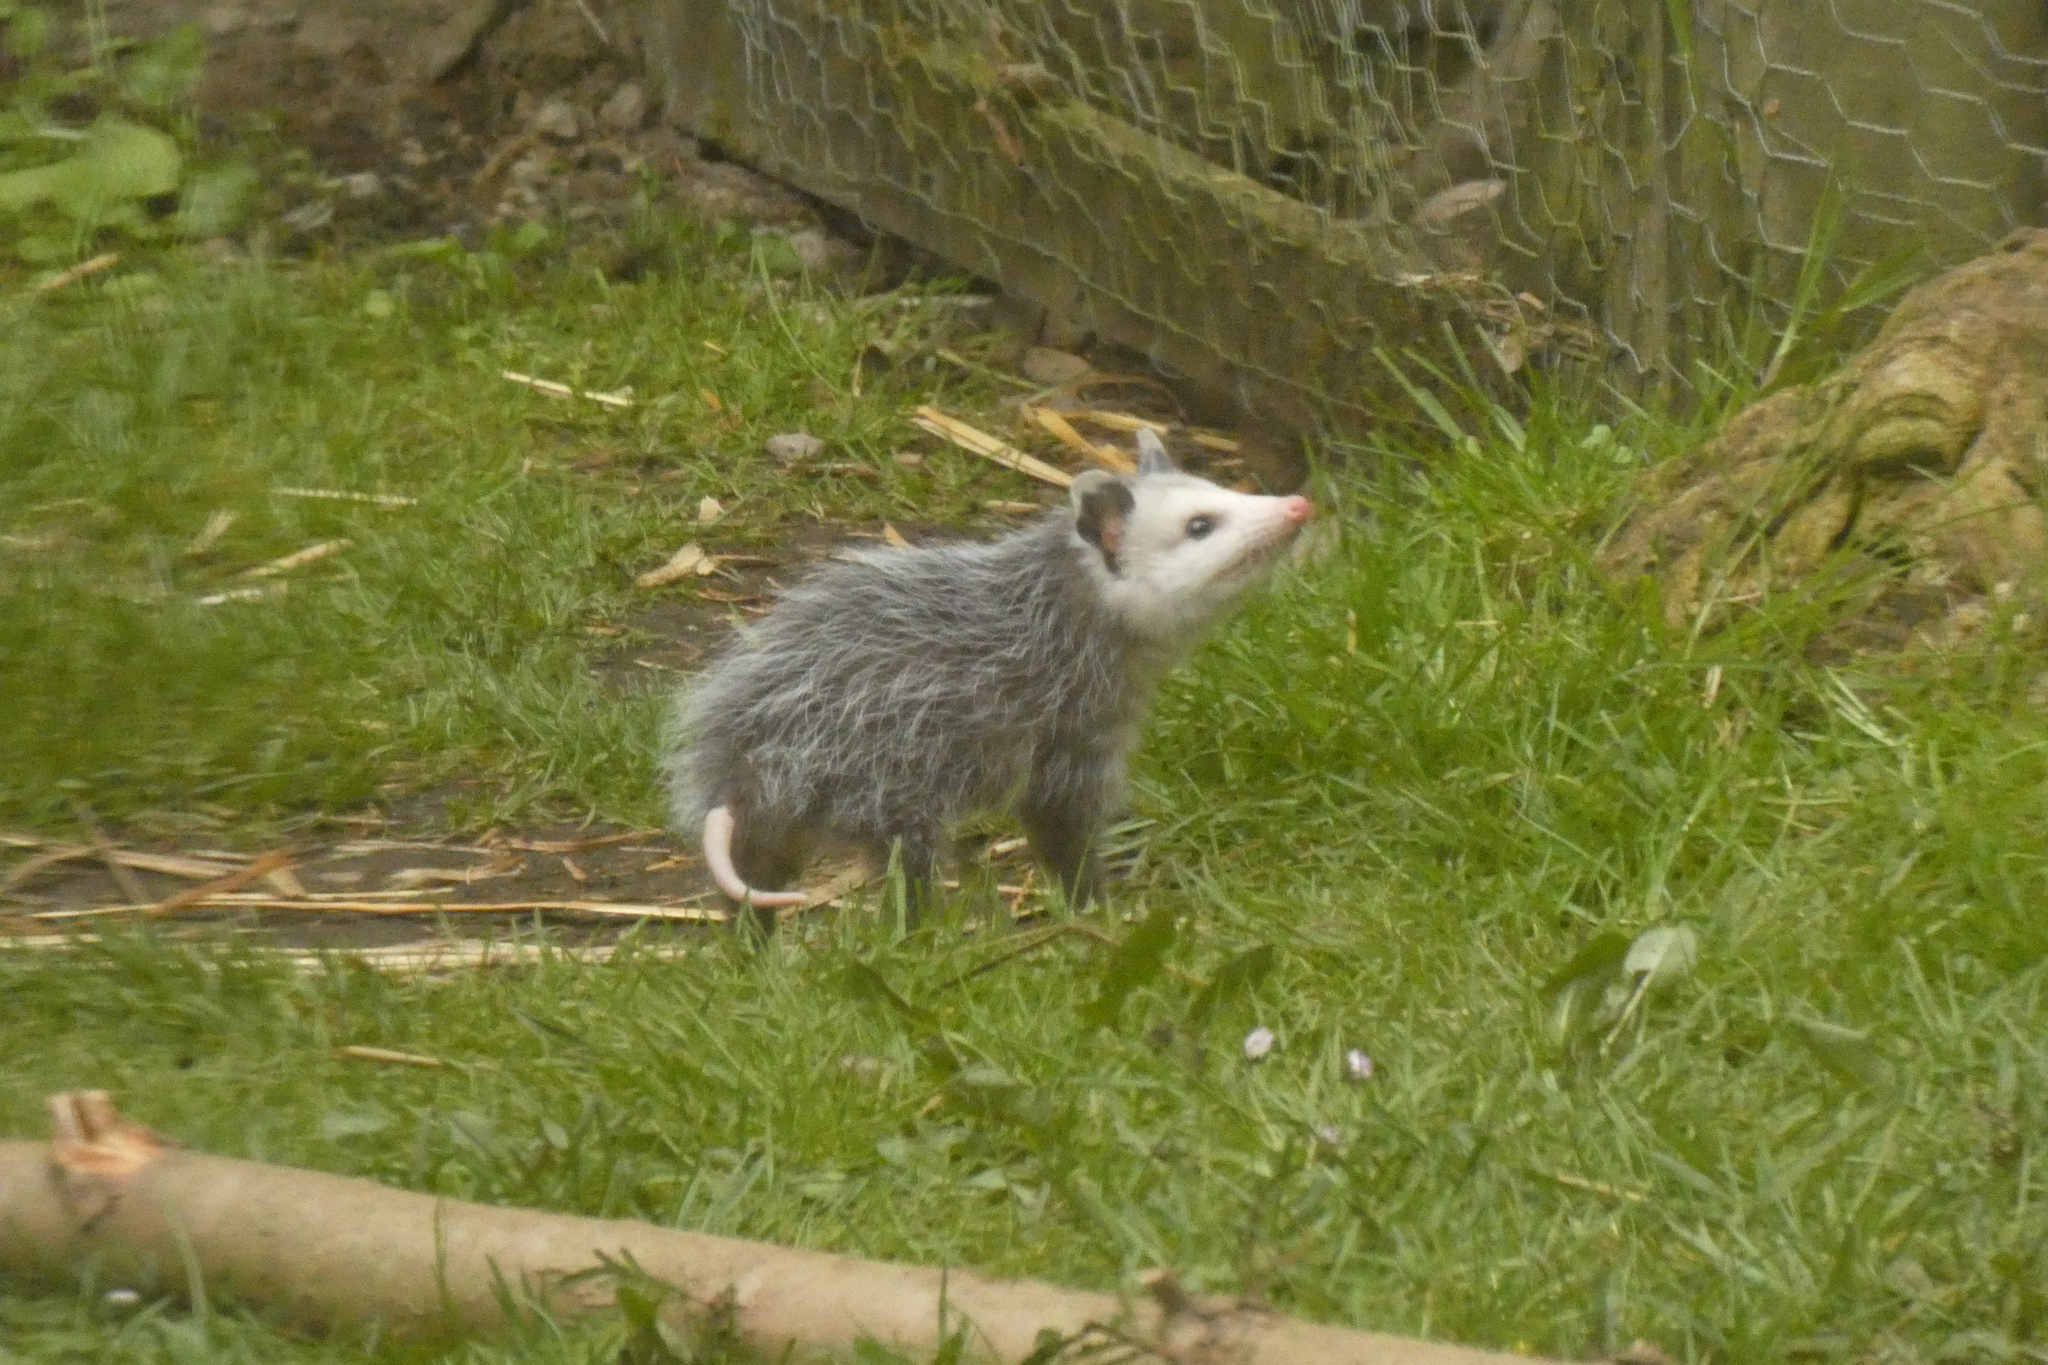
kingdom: Animalia
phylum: Chordata
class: Mammalia
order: Didelphimorphia
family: Didelphidae
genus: Didelphis
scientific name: Didelphis virginiana
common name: Virginia opossum
